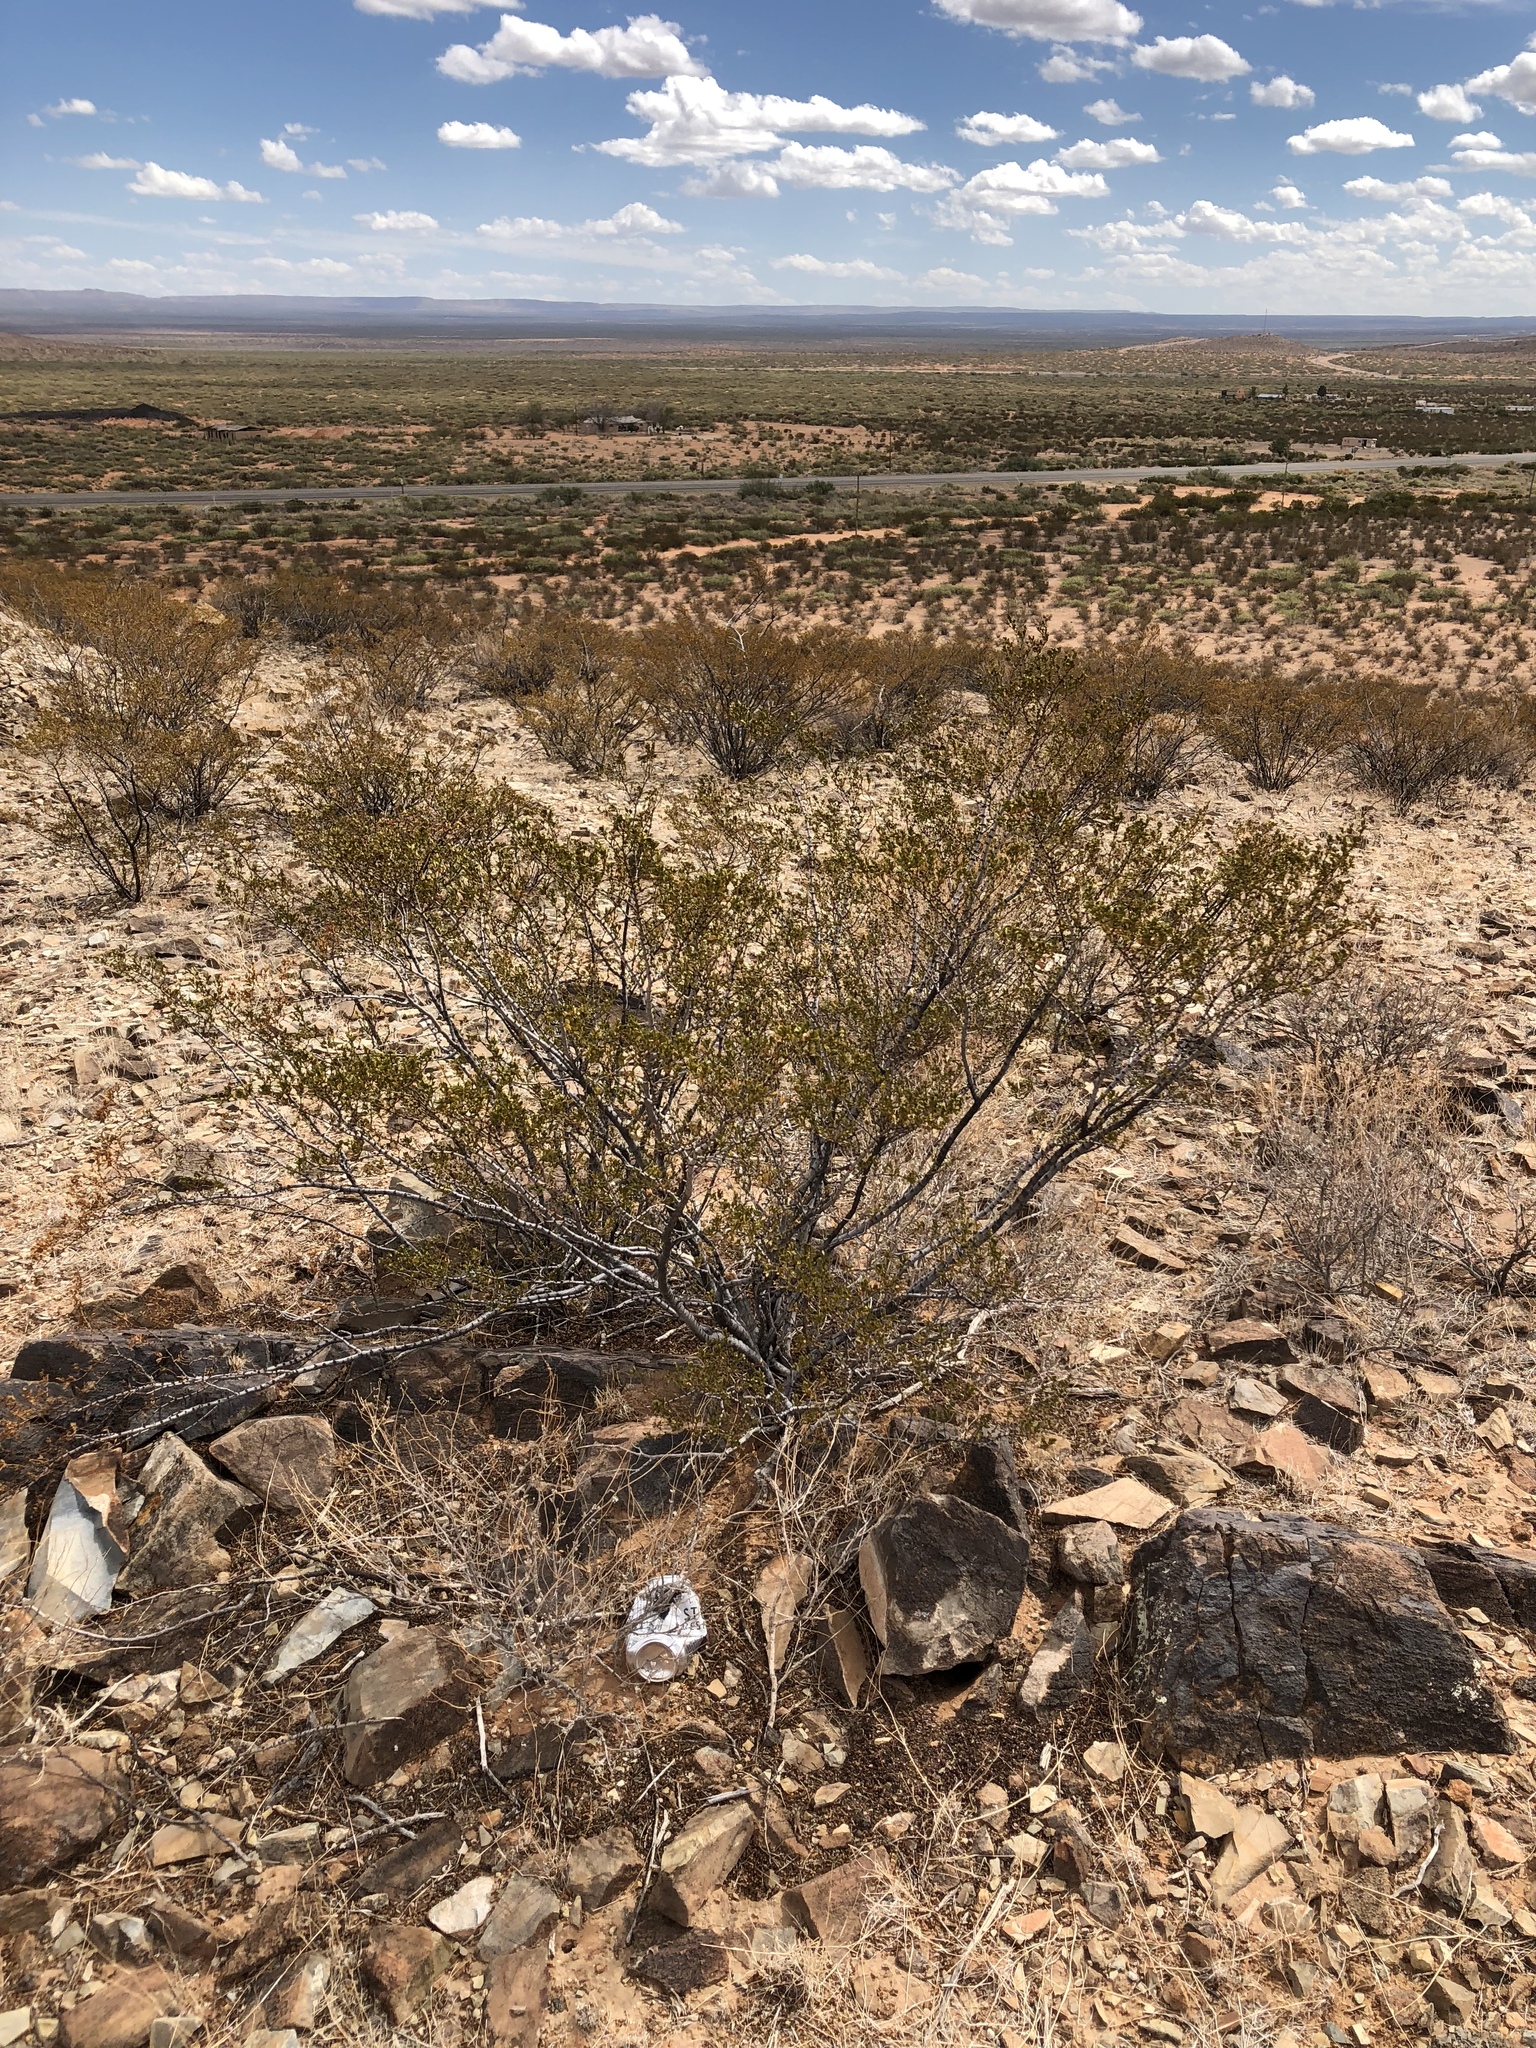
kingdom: Plantae
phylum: Tracheophyta
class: Magnoliopsida
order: Zygophyllales
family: Zygophyllaceae
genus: Larrea
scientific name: Larrea tridentata
